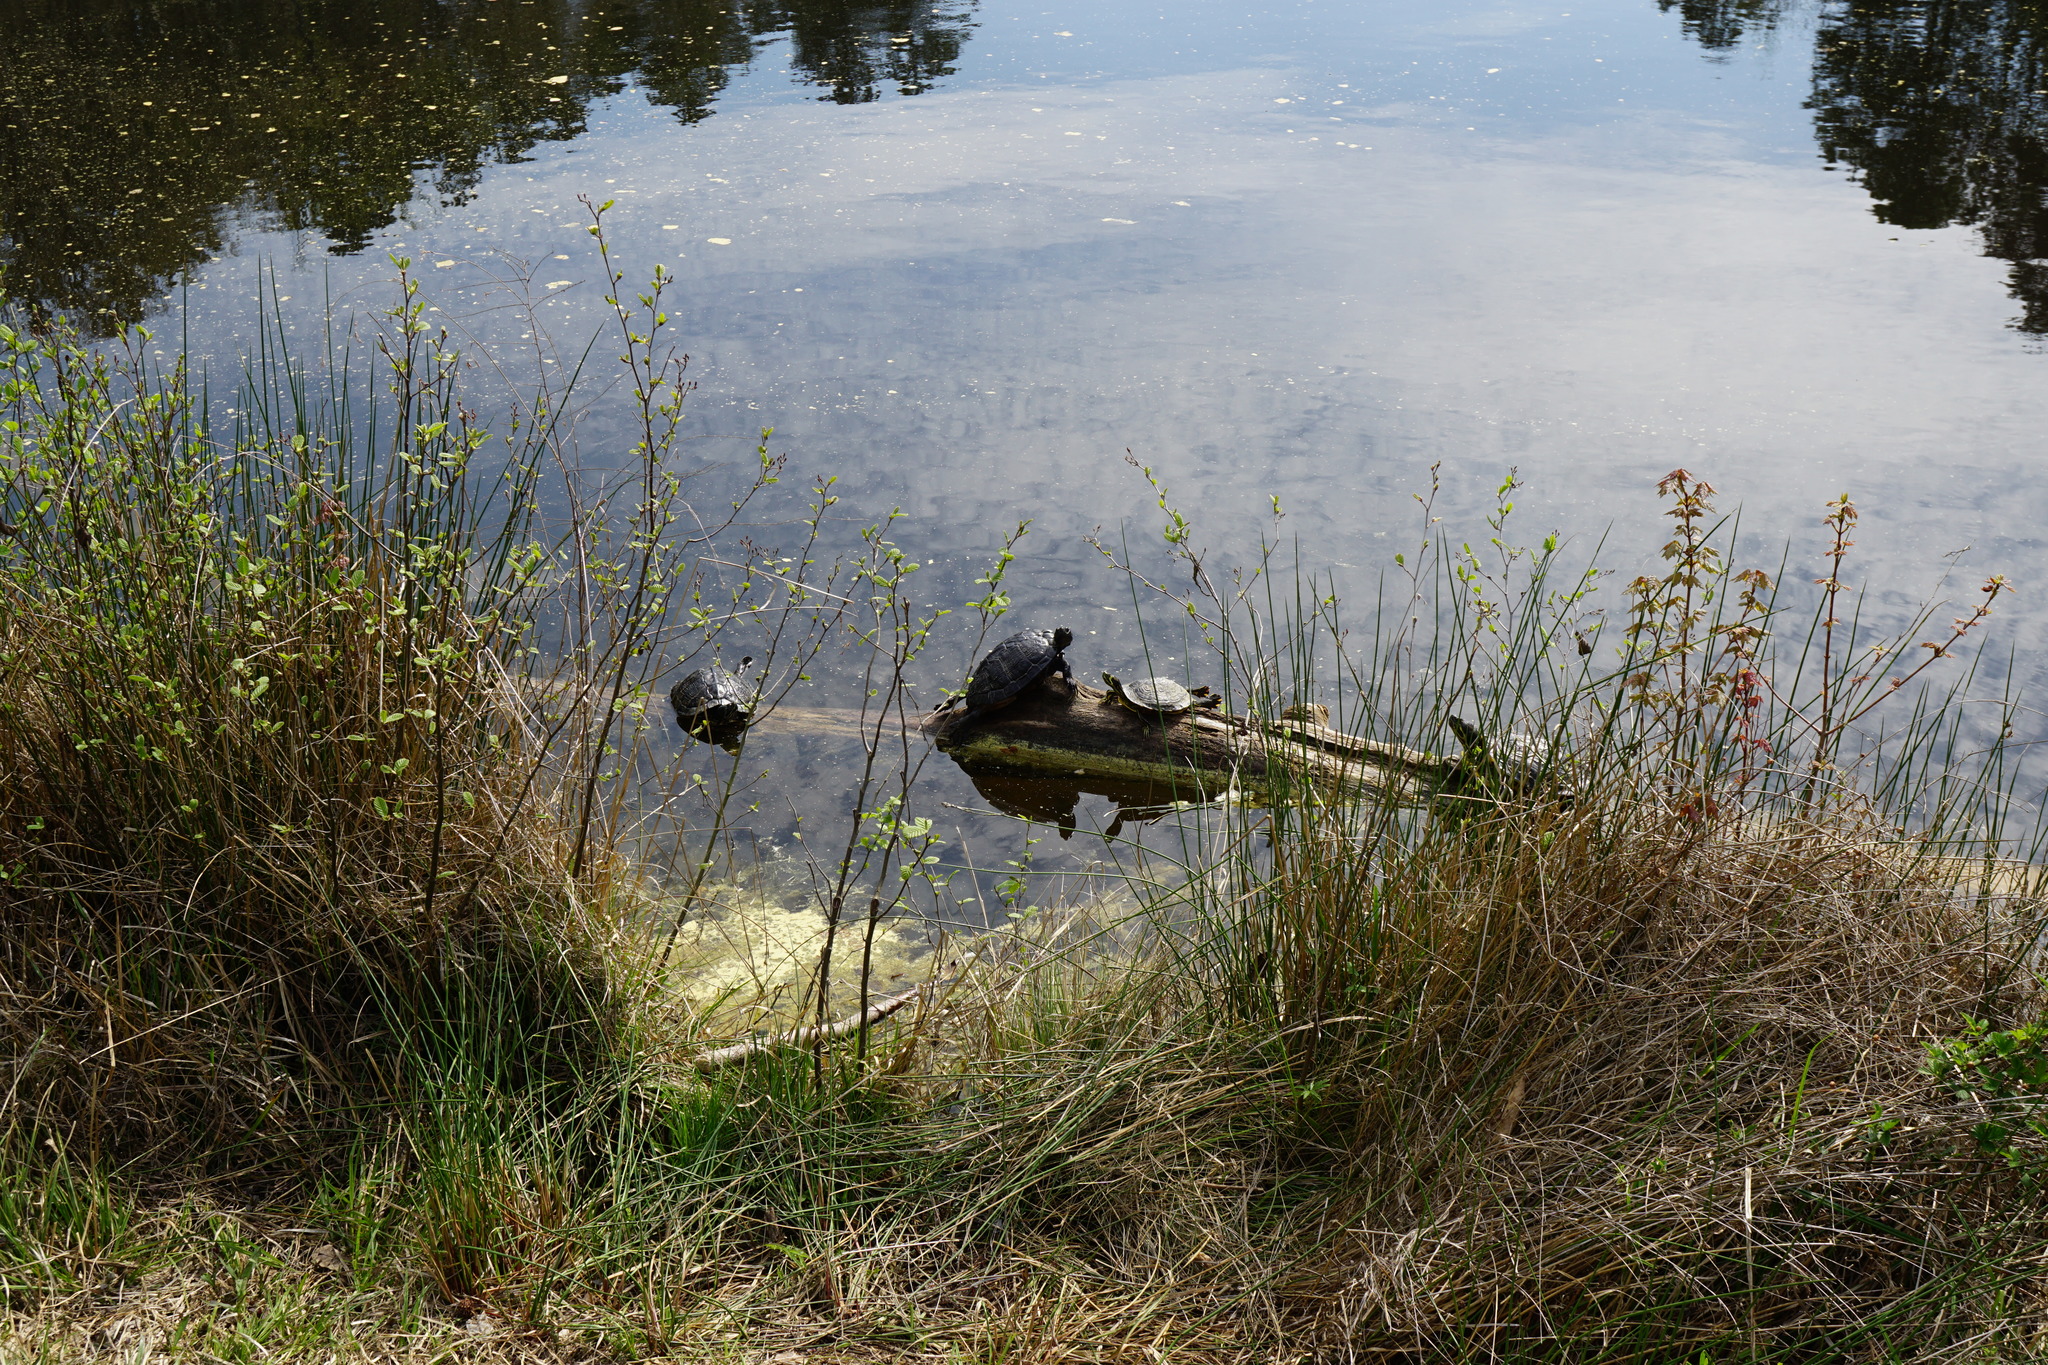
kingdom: Animalia
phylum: Chordata
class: Testudines
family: Emydidae
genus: Trachemys
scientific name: Trachemys scripta
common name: Slider
